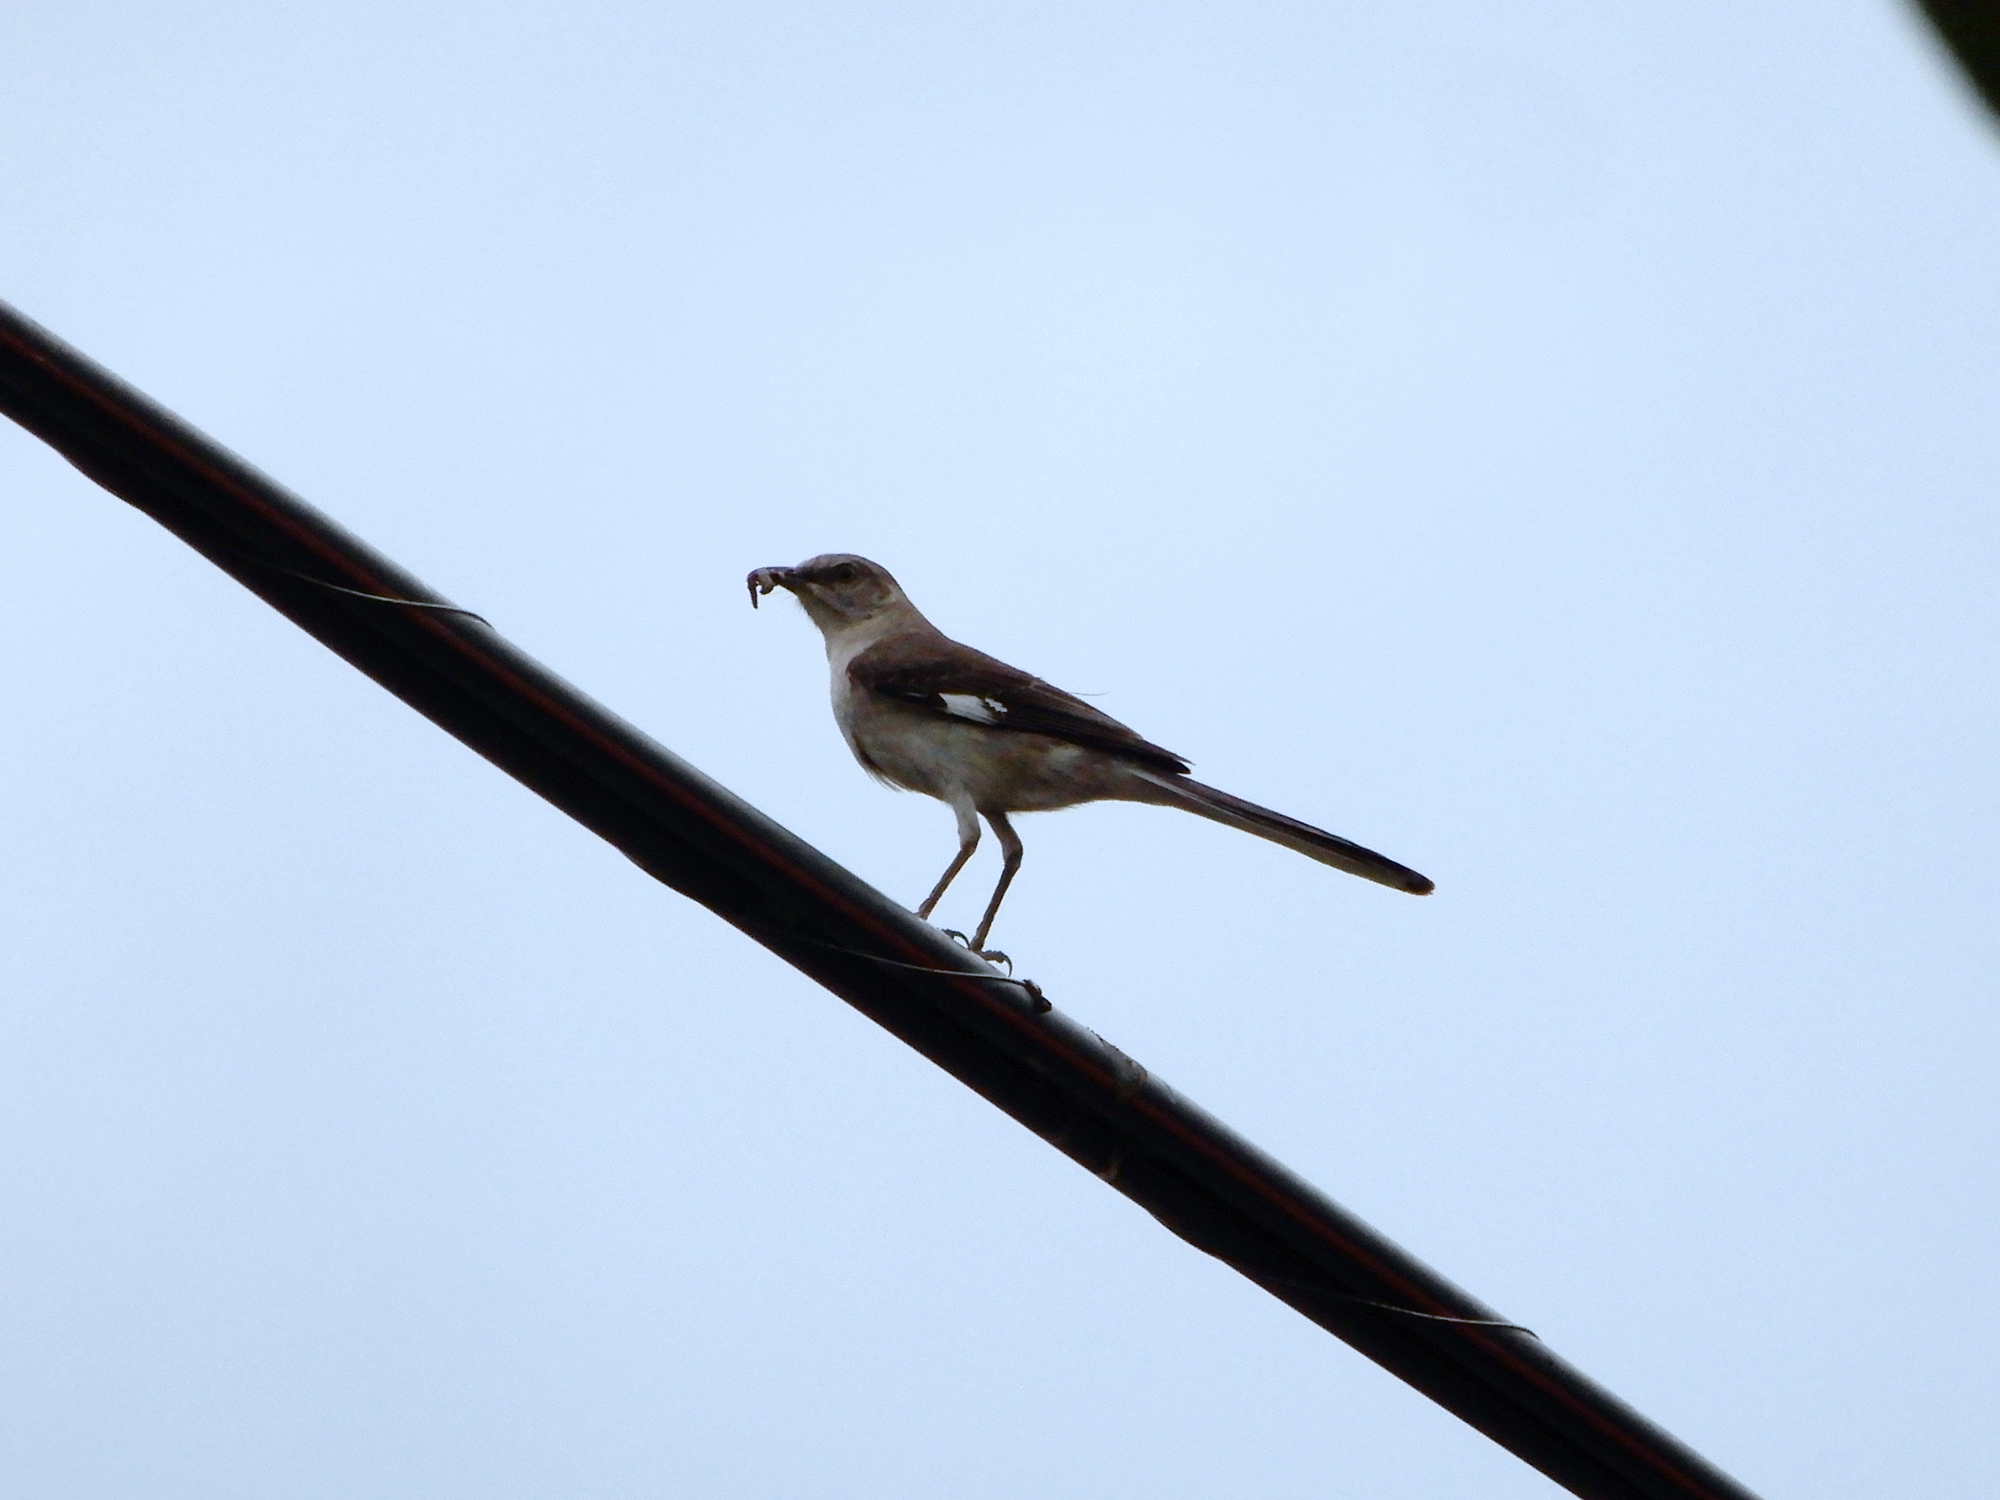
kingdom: Animalia
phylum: Chordata
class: Aves
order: Passeriformes
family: Mimidae
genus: Mimus
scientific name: Mimus polyglottos
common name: Northern mockingbird
